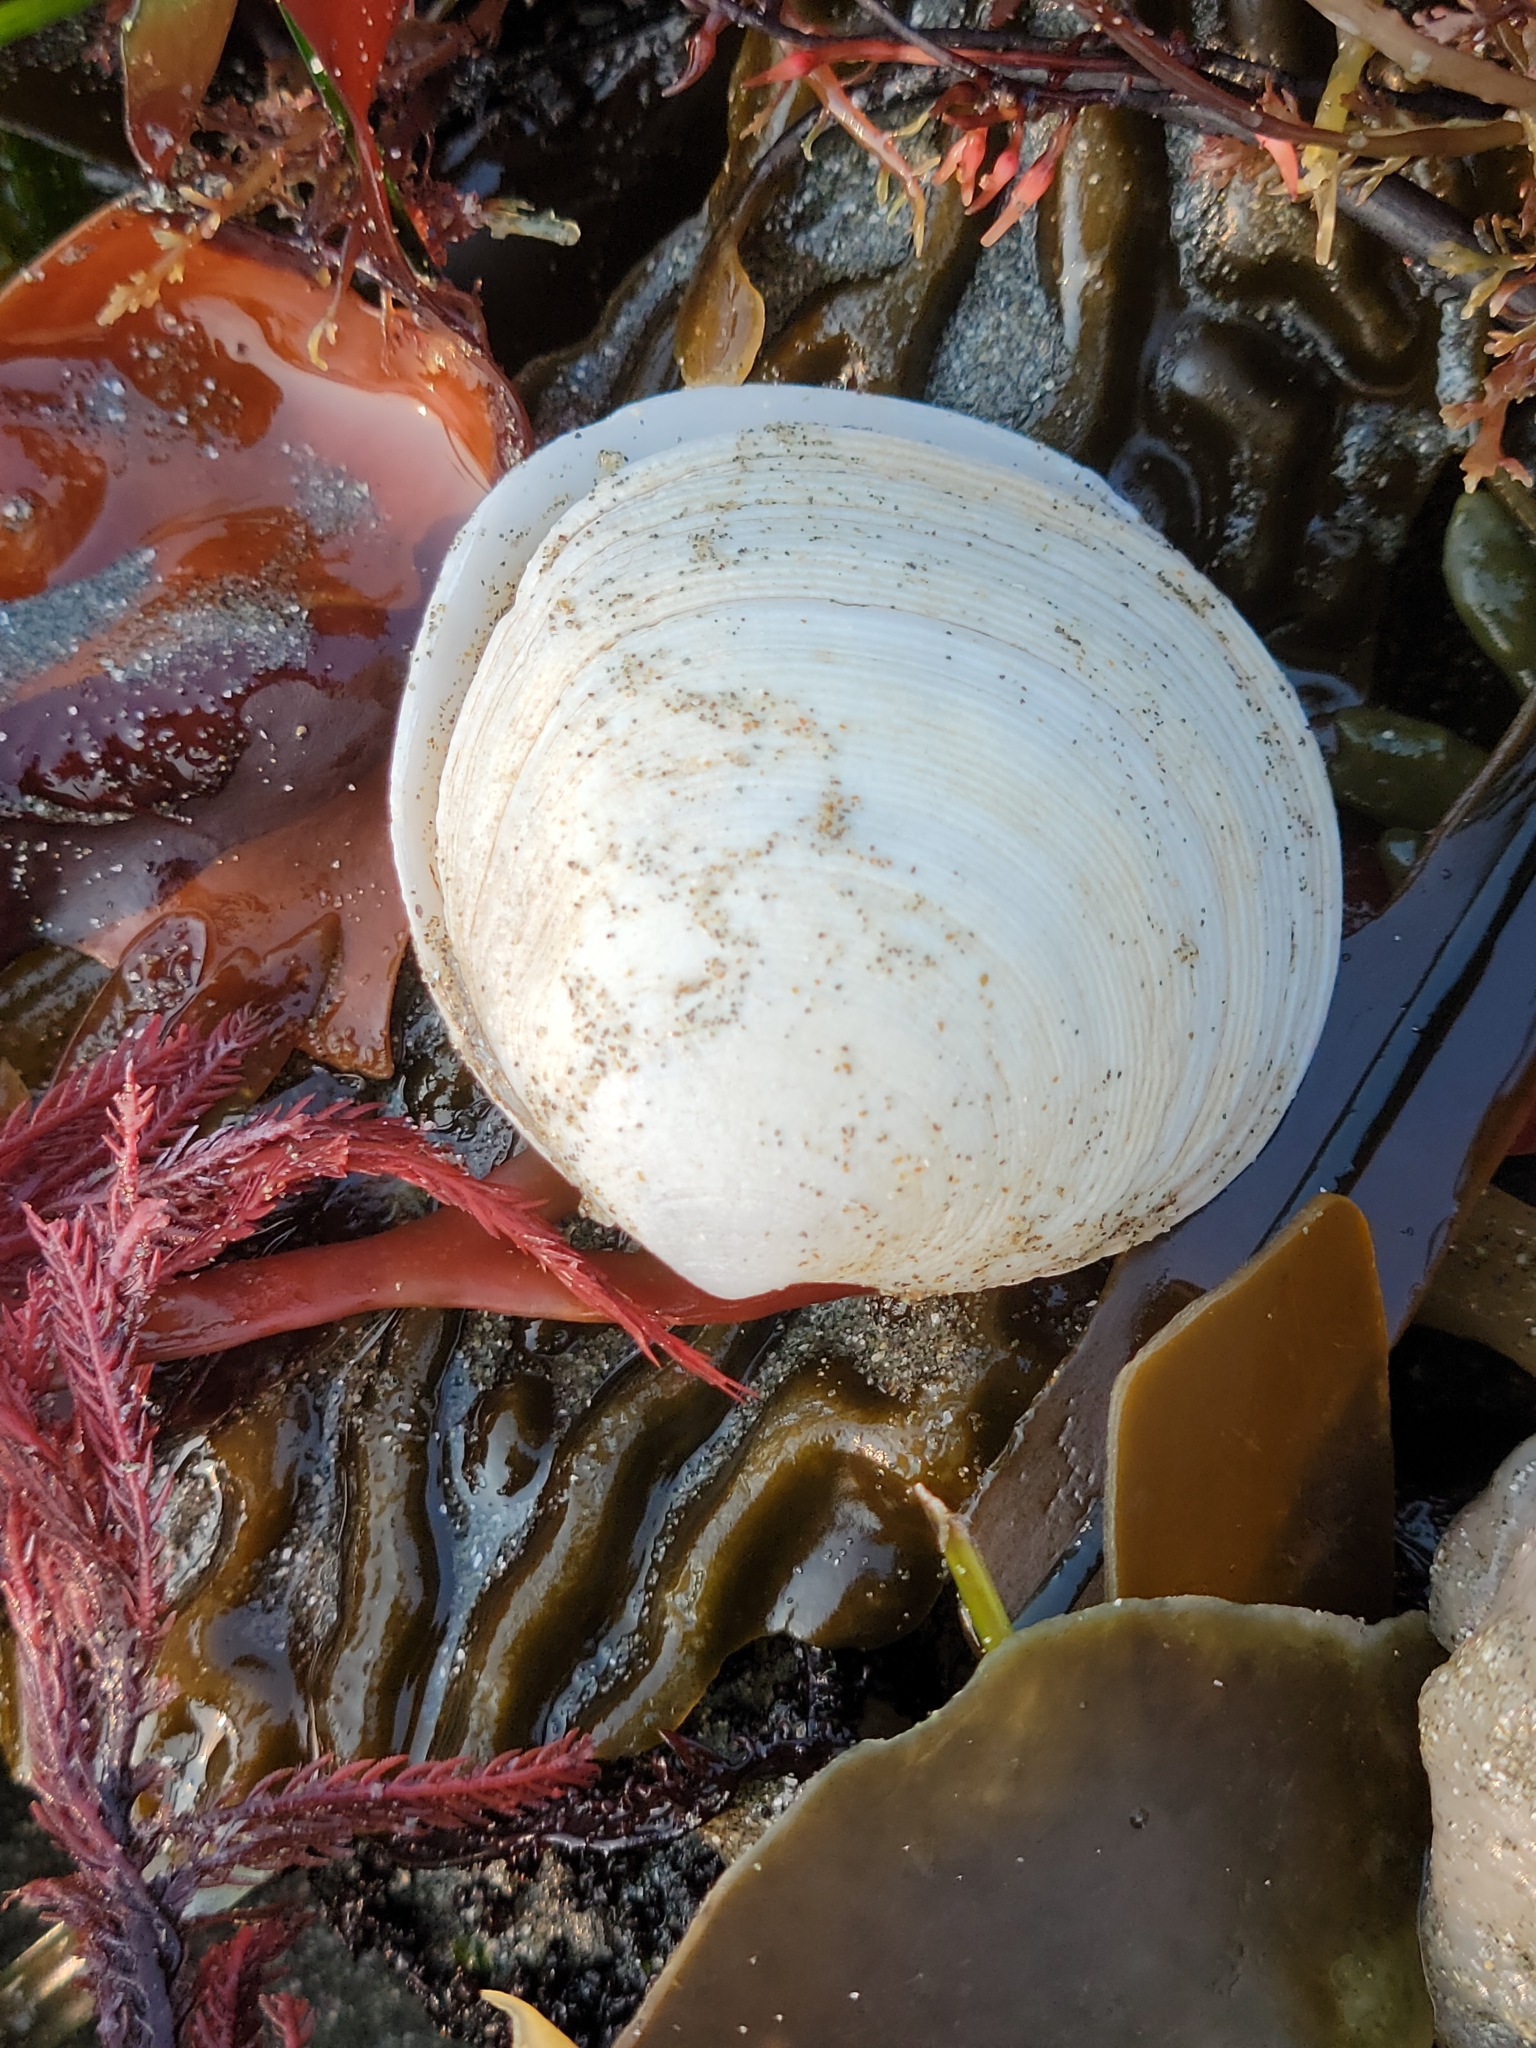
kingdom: Animalia
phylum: Mollusca
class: Bivalvia
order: Venerida
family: Ungulinidae
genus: Zemysina
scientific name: Zemysina orbella
